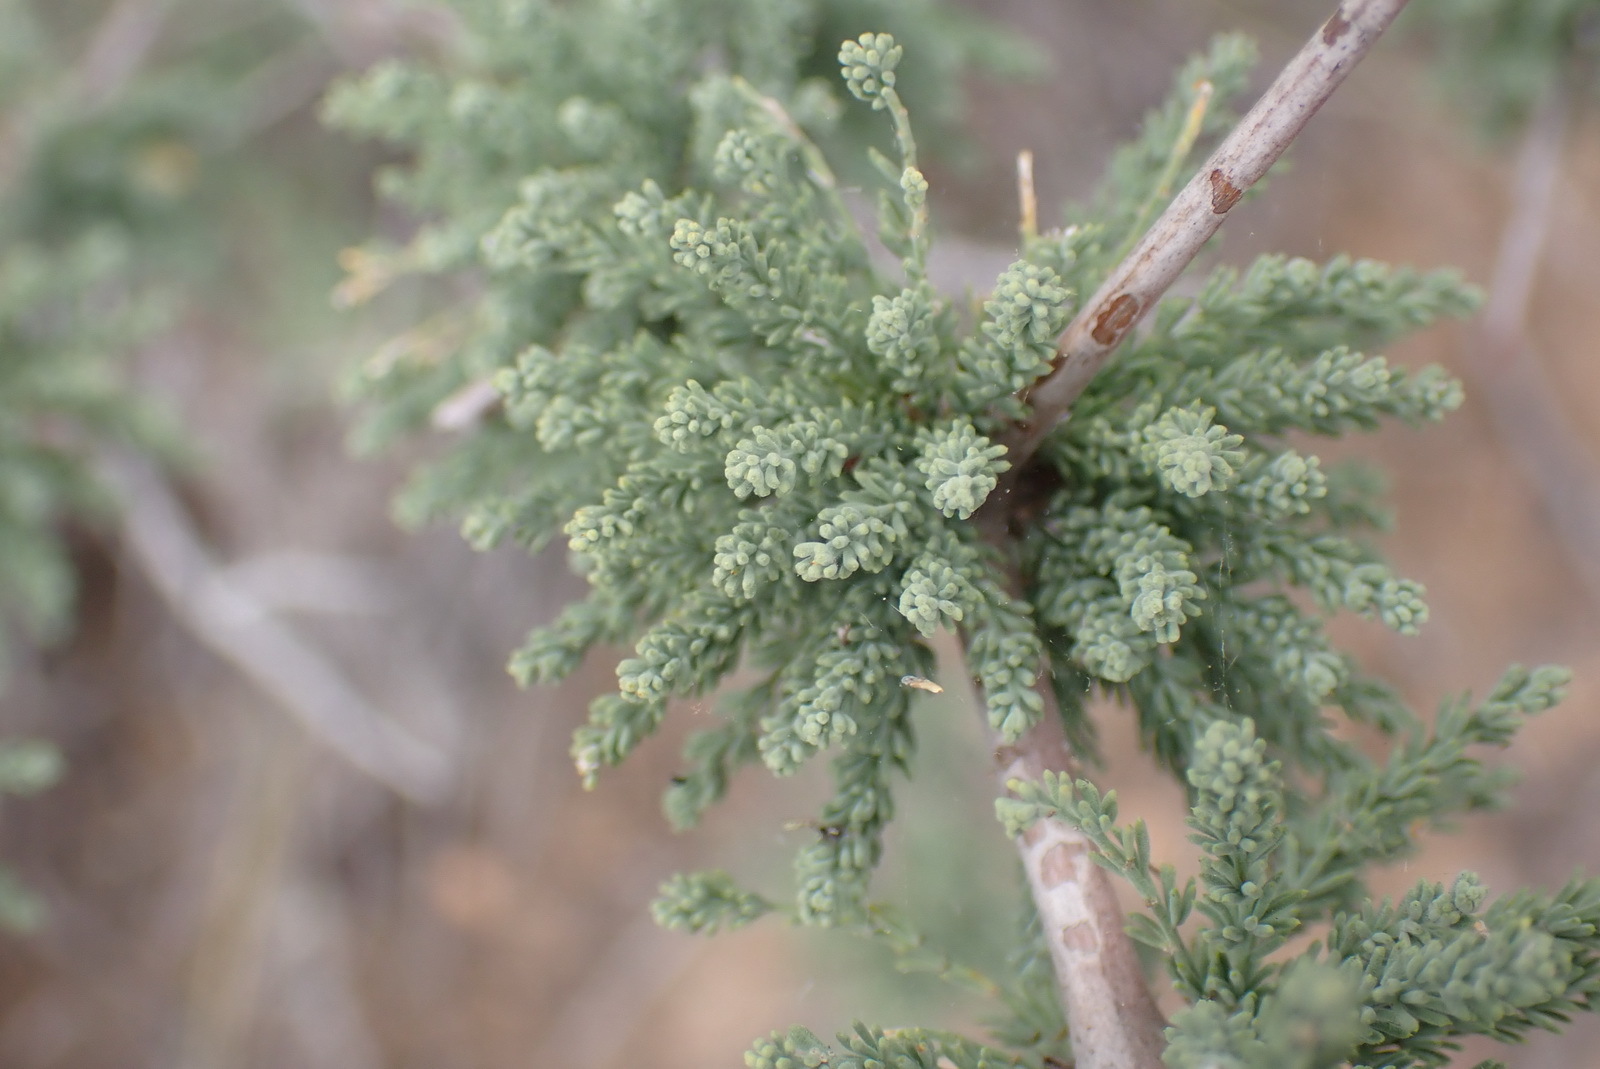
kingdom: Plantae
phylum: Tracheophyta
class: Liliopsida
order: Asparagales
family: Asparagaceae
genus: Asparagus
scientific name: Asparagus capensis
